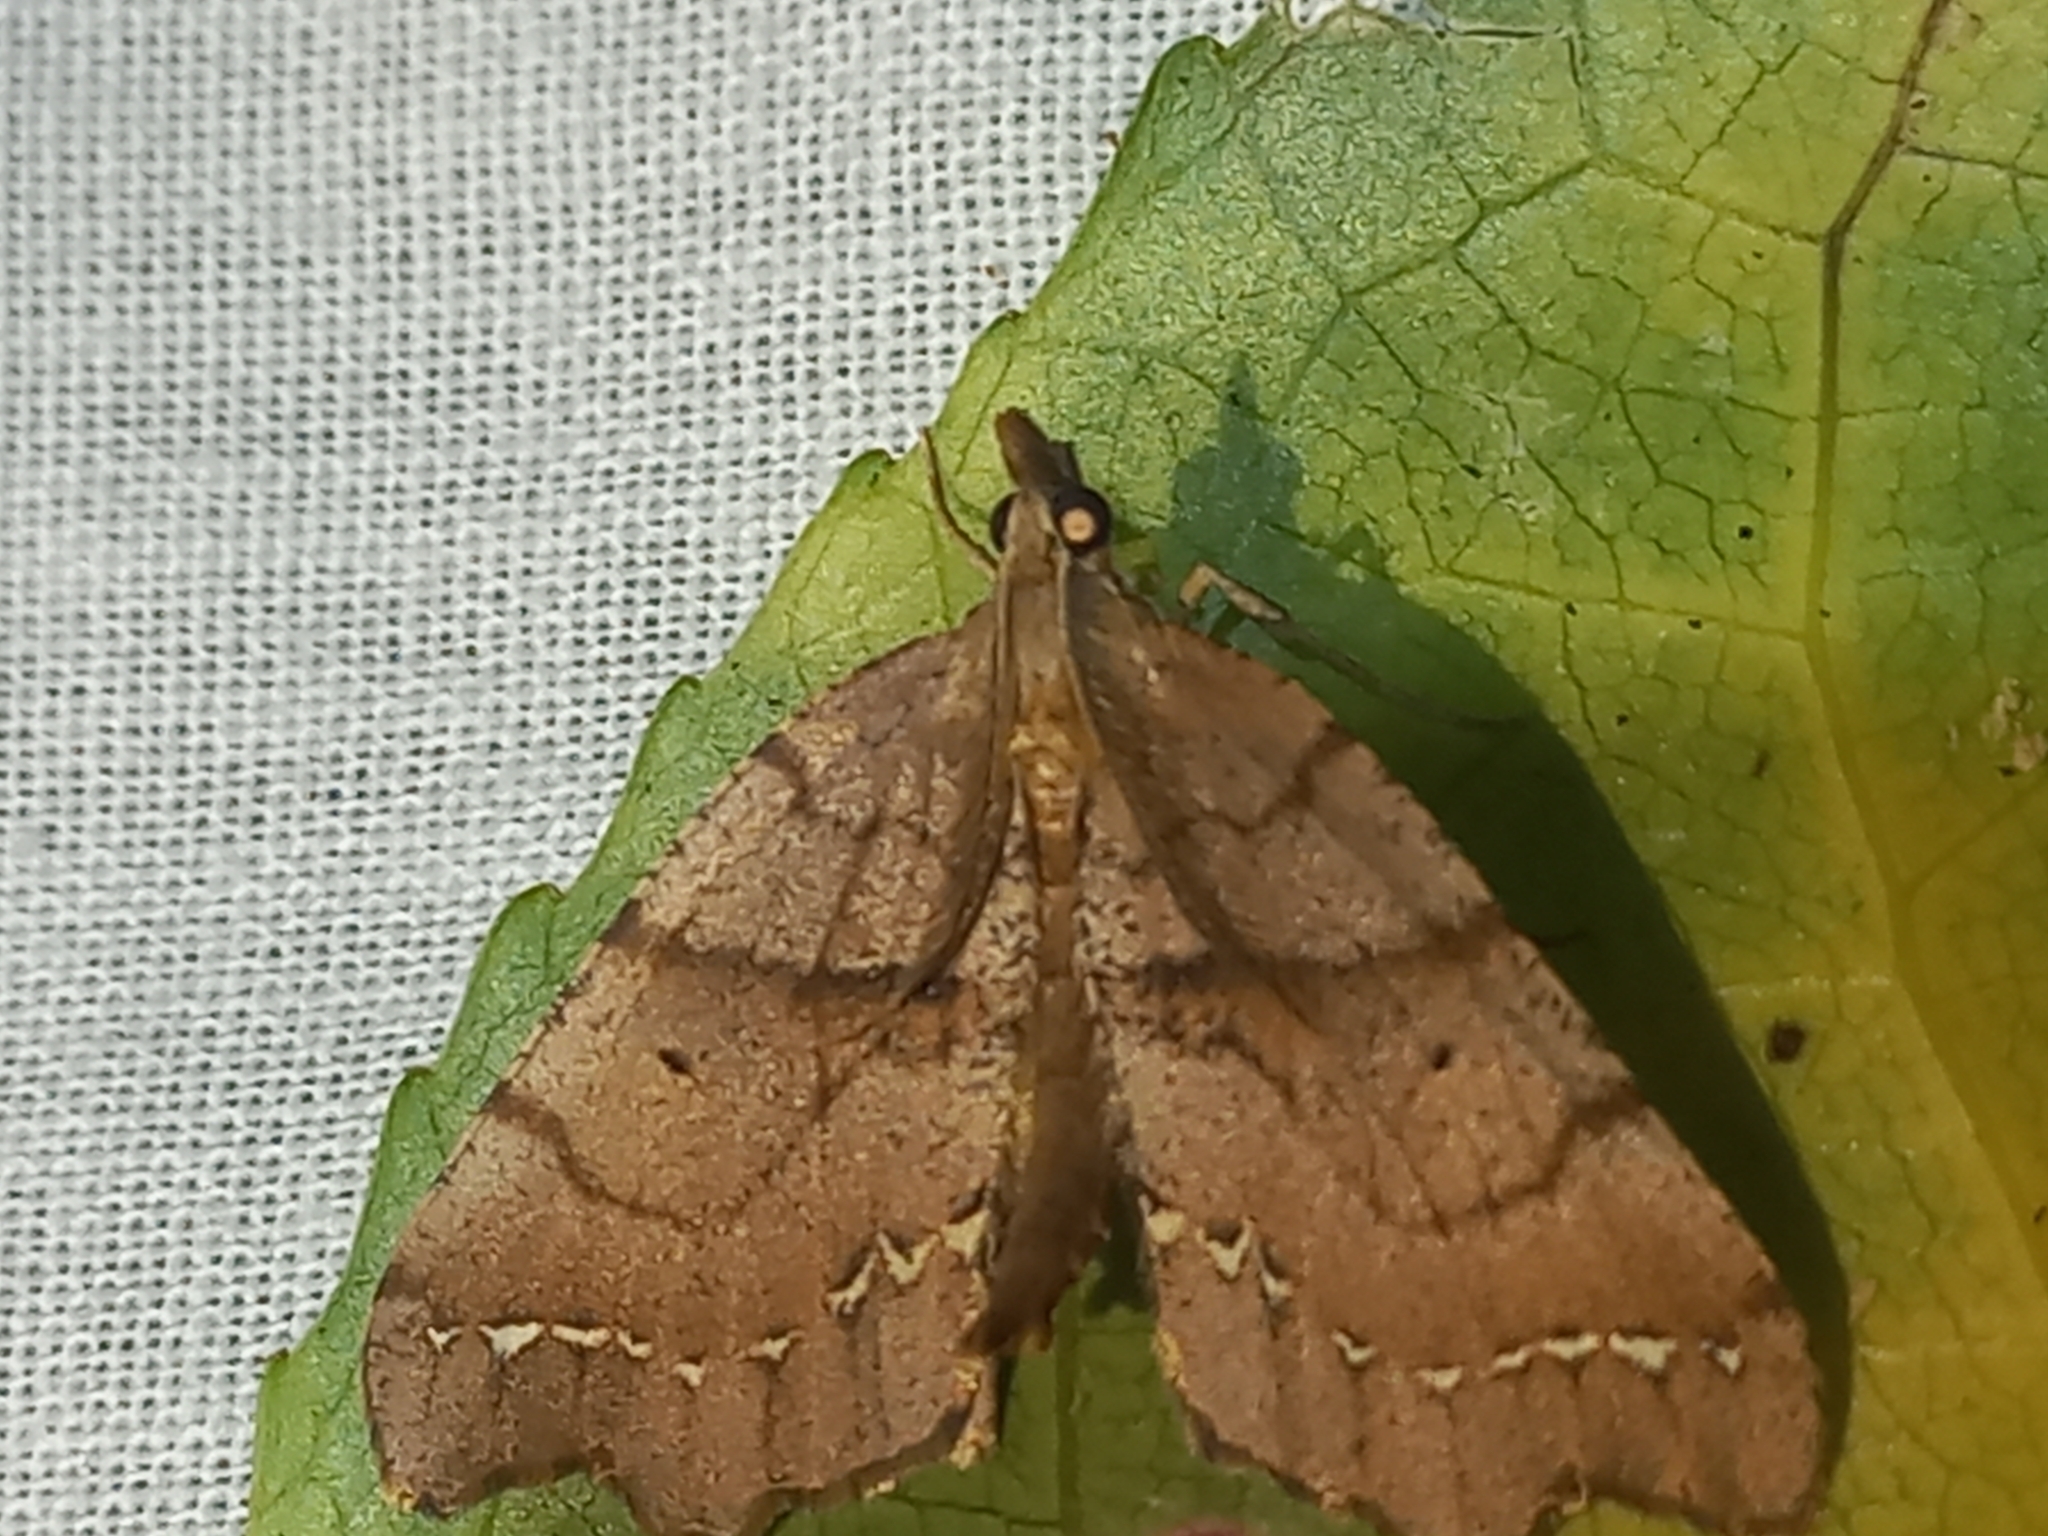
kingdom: Animalia
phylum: Arthropoda
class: Insecta
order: Lepidoptera
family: Geometridae
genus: Chalastra
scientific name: Chalastra pellurgata
